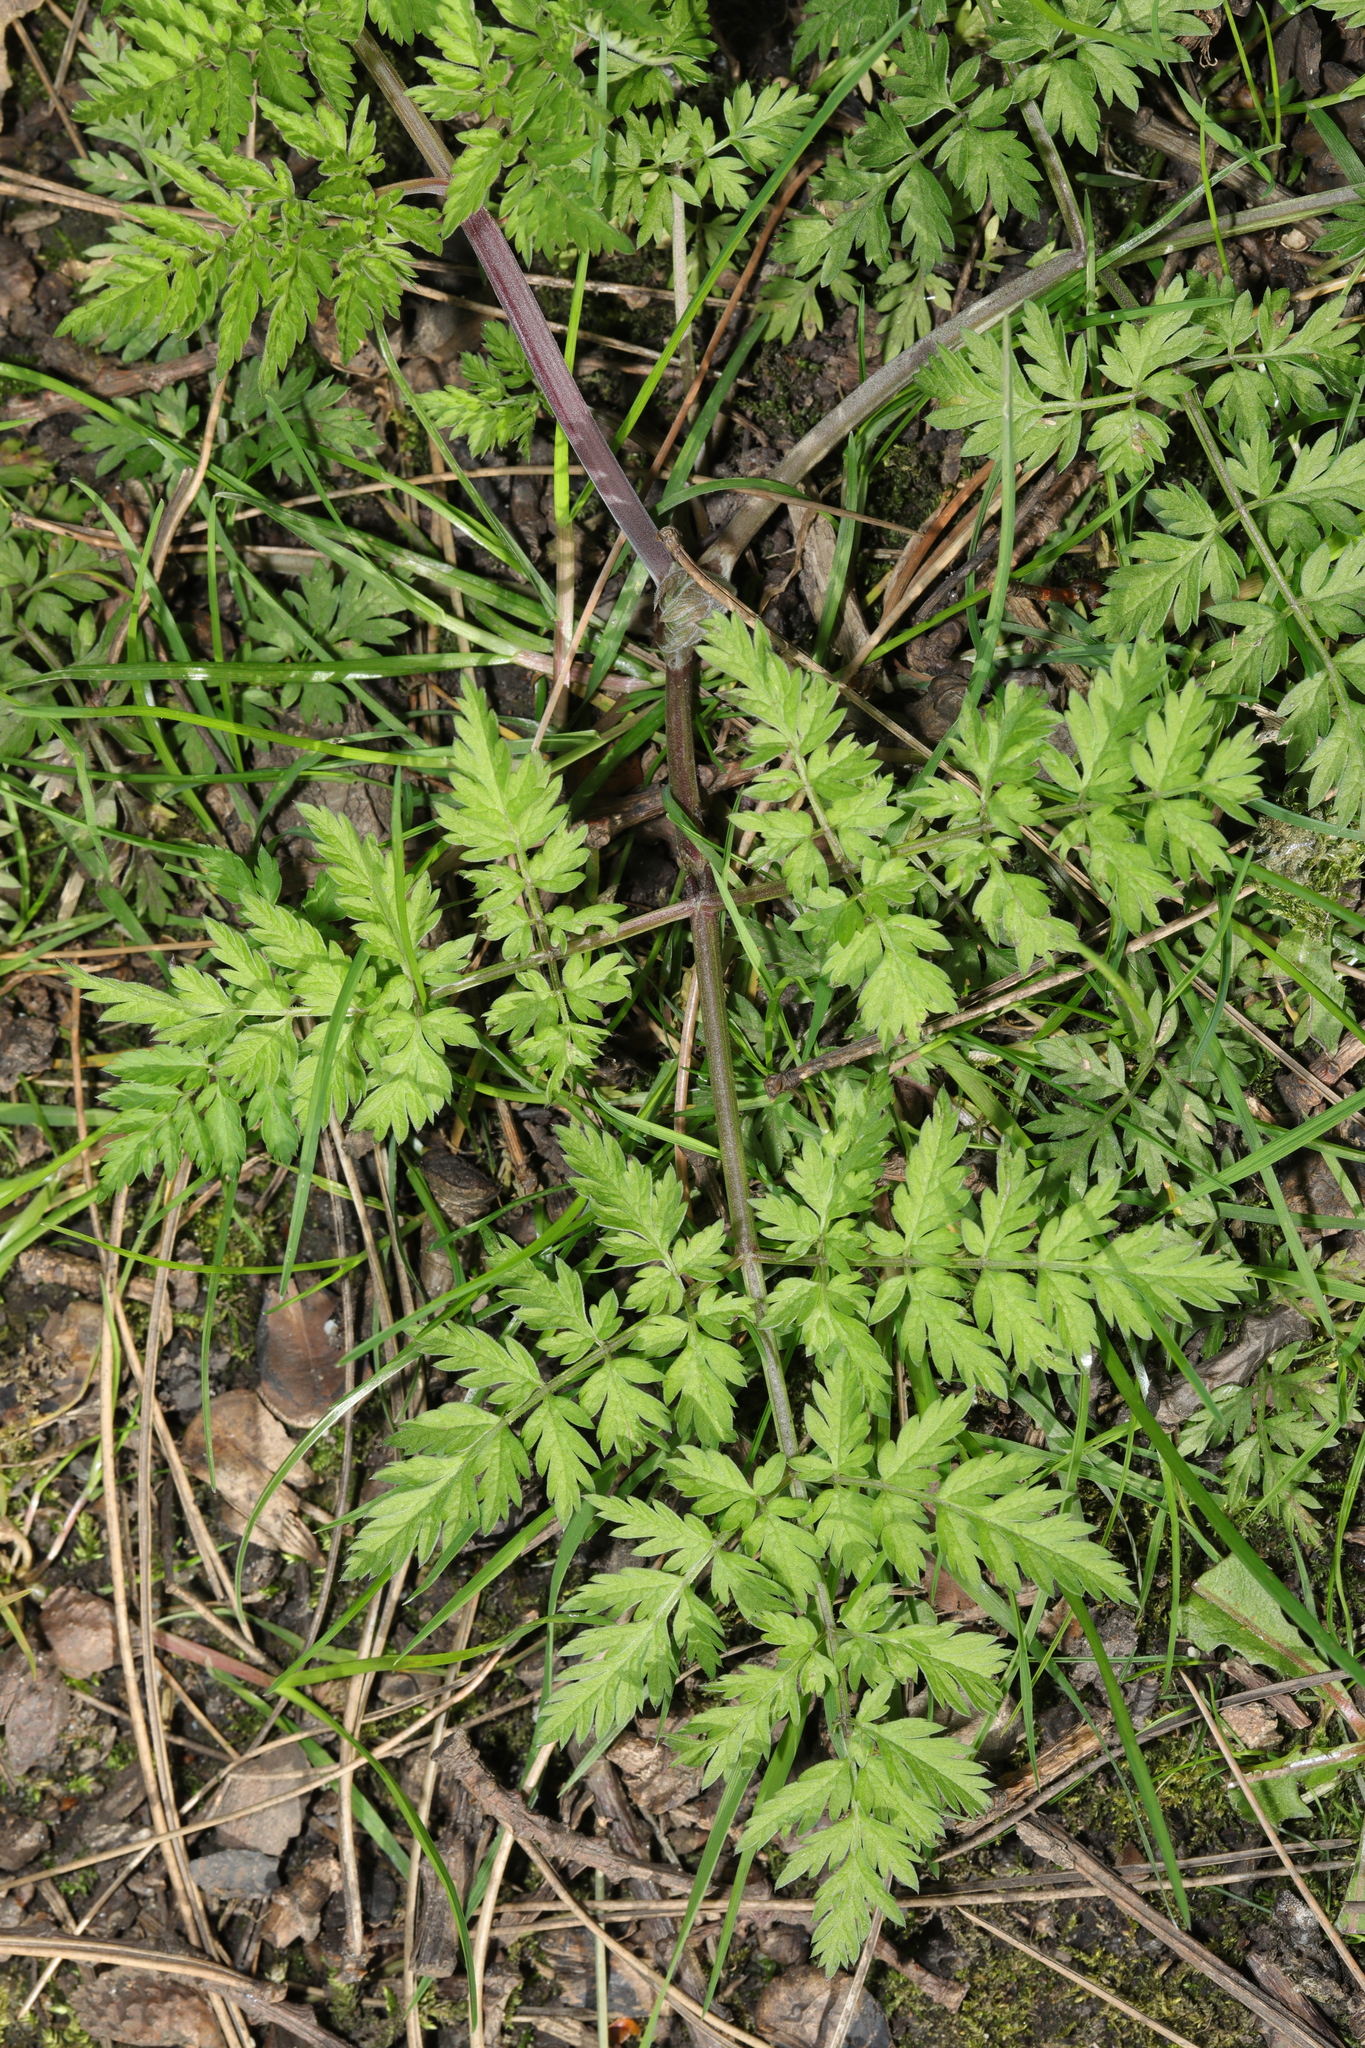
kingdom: Plantae
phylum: Tracheophyta
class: Magnoliopsida
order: Apiales
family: Apiaceae
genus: Anthriscus
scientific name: Anthriscus sylvestris
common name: Cow parsley
